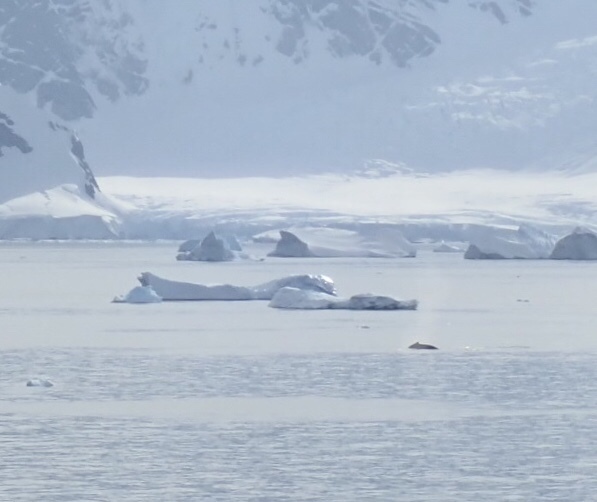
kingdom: Animalia
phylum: Chordata
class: Mammalia
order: Cetacea
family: Balaenopteridae
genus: Megaptera
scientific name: Megaptera novaeangliae
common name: Humpback whale
